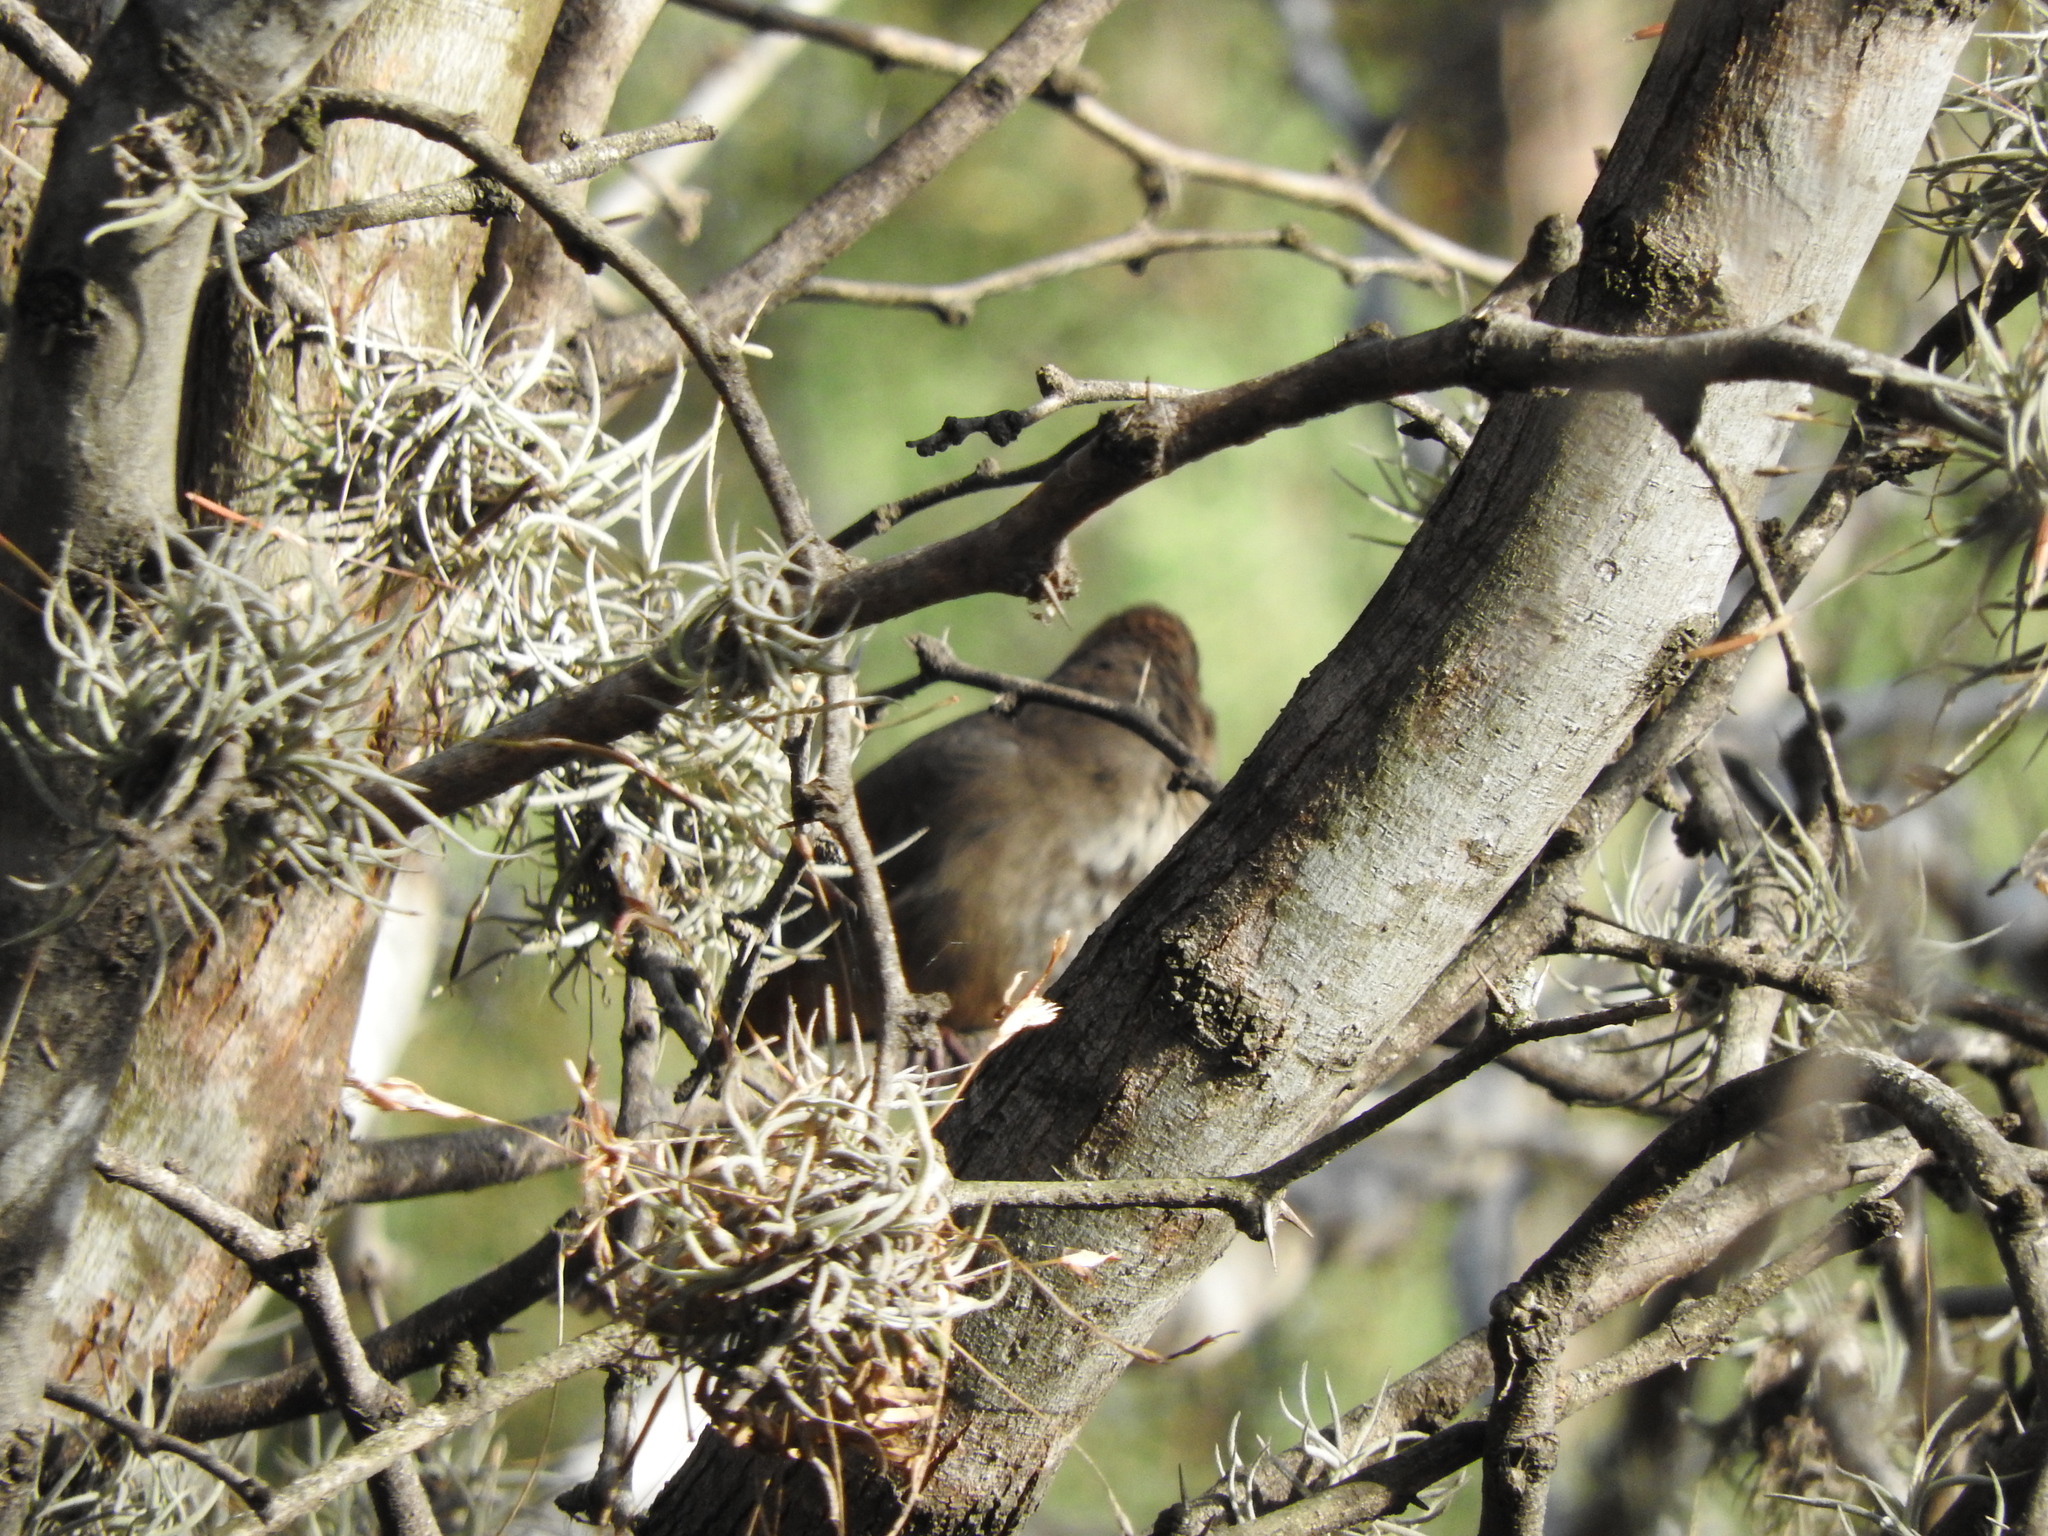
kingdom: Animalia
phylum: Chordata
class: Aves
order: Passeriformes
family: Passerellidae
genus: Melozone
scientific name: Melozone fusca
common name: Canyon towhee
